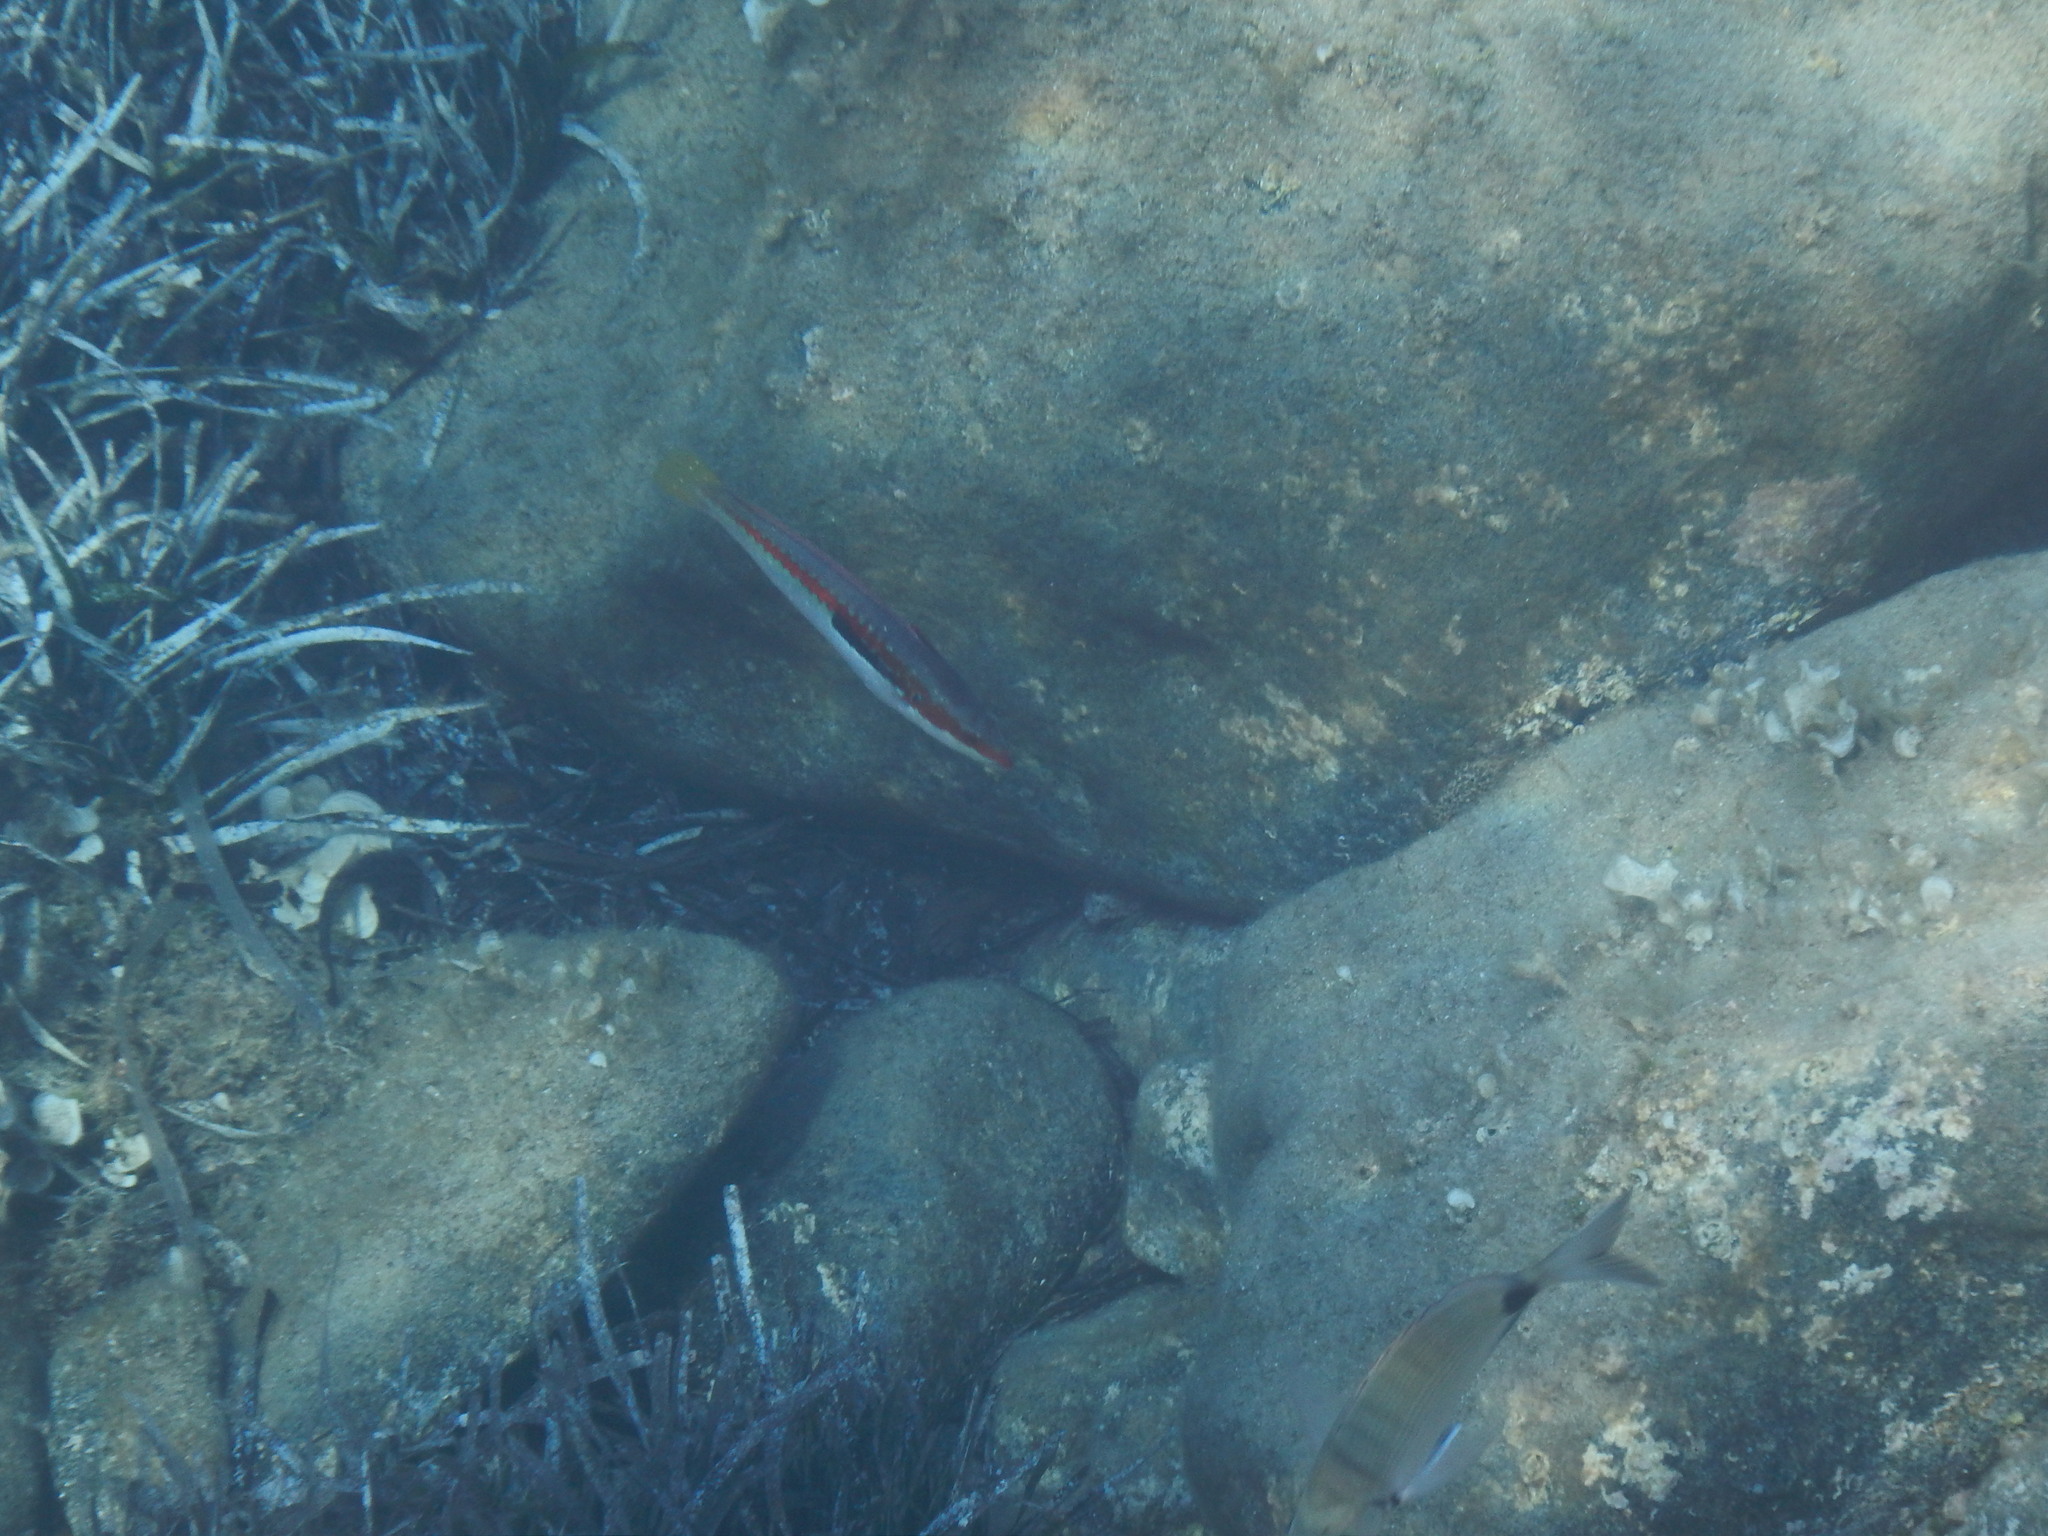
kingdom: Animalia
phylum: Chordata
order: Perciformes
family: Labridae
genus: Coris
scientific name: Coris julis
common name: Rainbow wrasse
